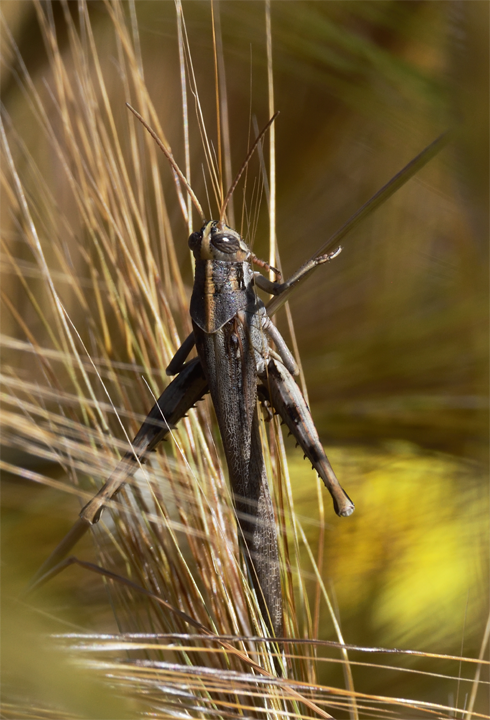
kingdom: Animalia
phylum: Arthropoda
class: Insecta
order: Orthoptera
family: Acrididae
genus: Schistocerca
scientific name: Schistocerca nitens
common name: Vagrant grasshopper
